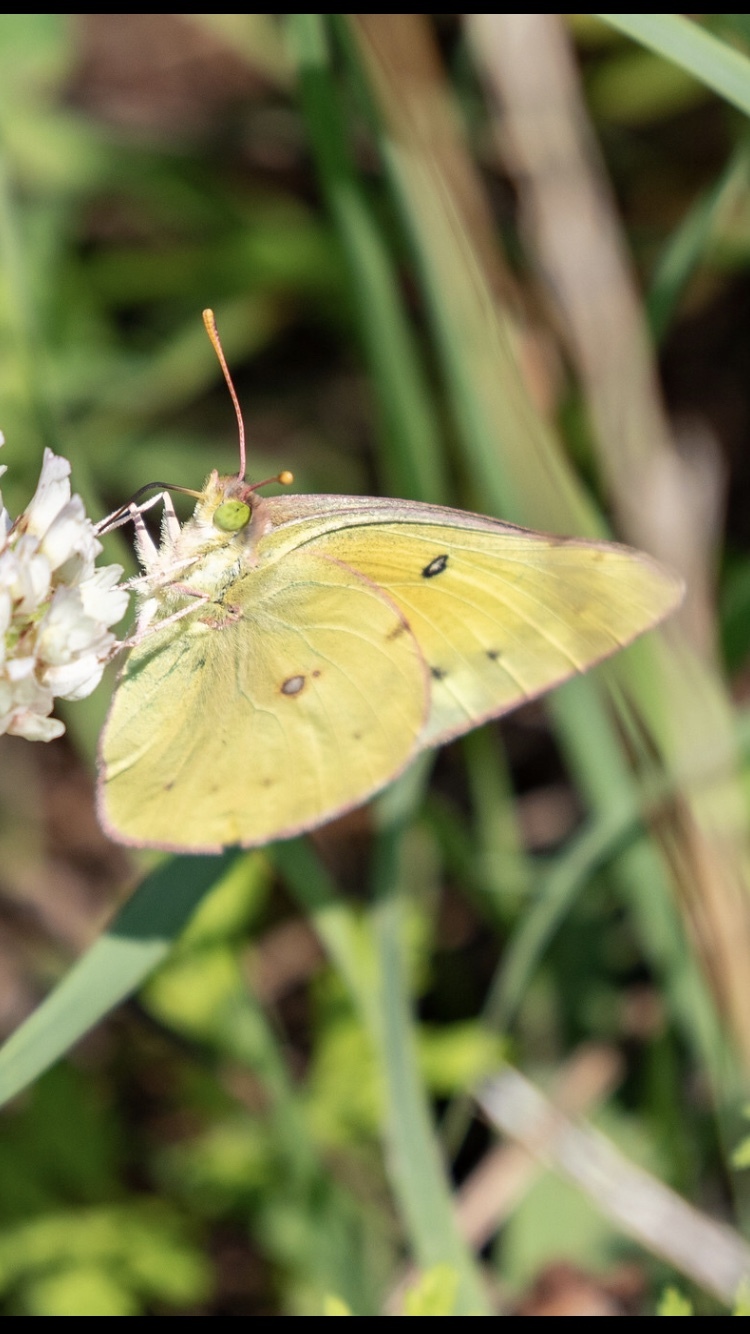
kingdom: Animalia
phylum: Arthropoda
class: Insecta
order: Lepidoptera
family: Pieridae
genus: Colias
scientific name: Colias eurytheme
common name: Alfalfa butterfly
